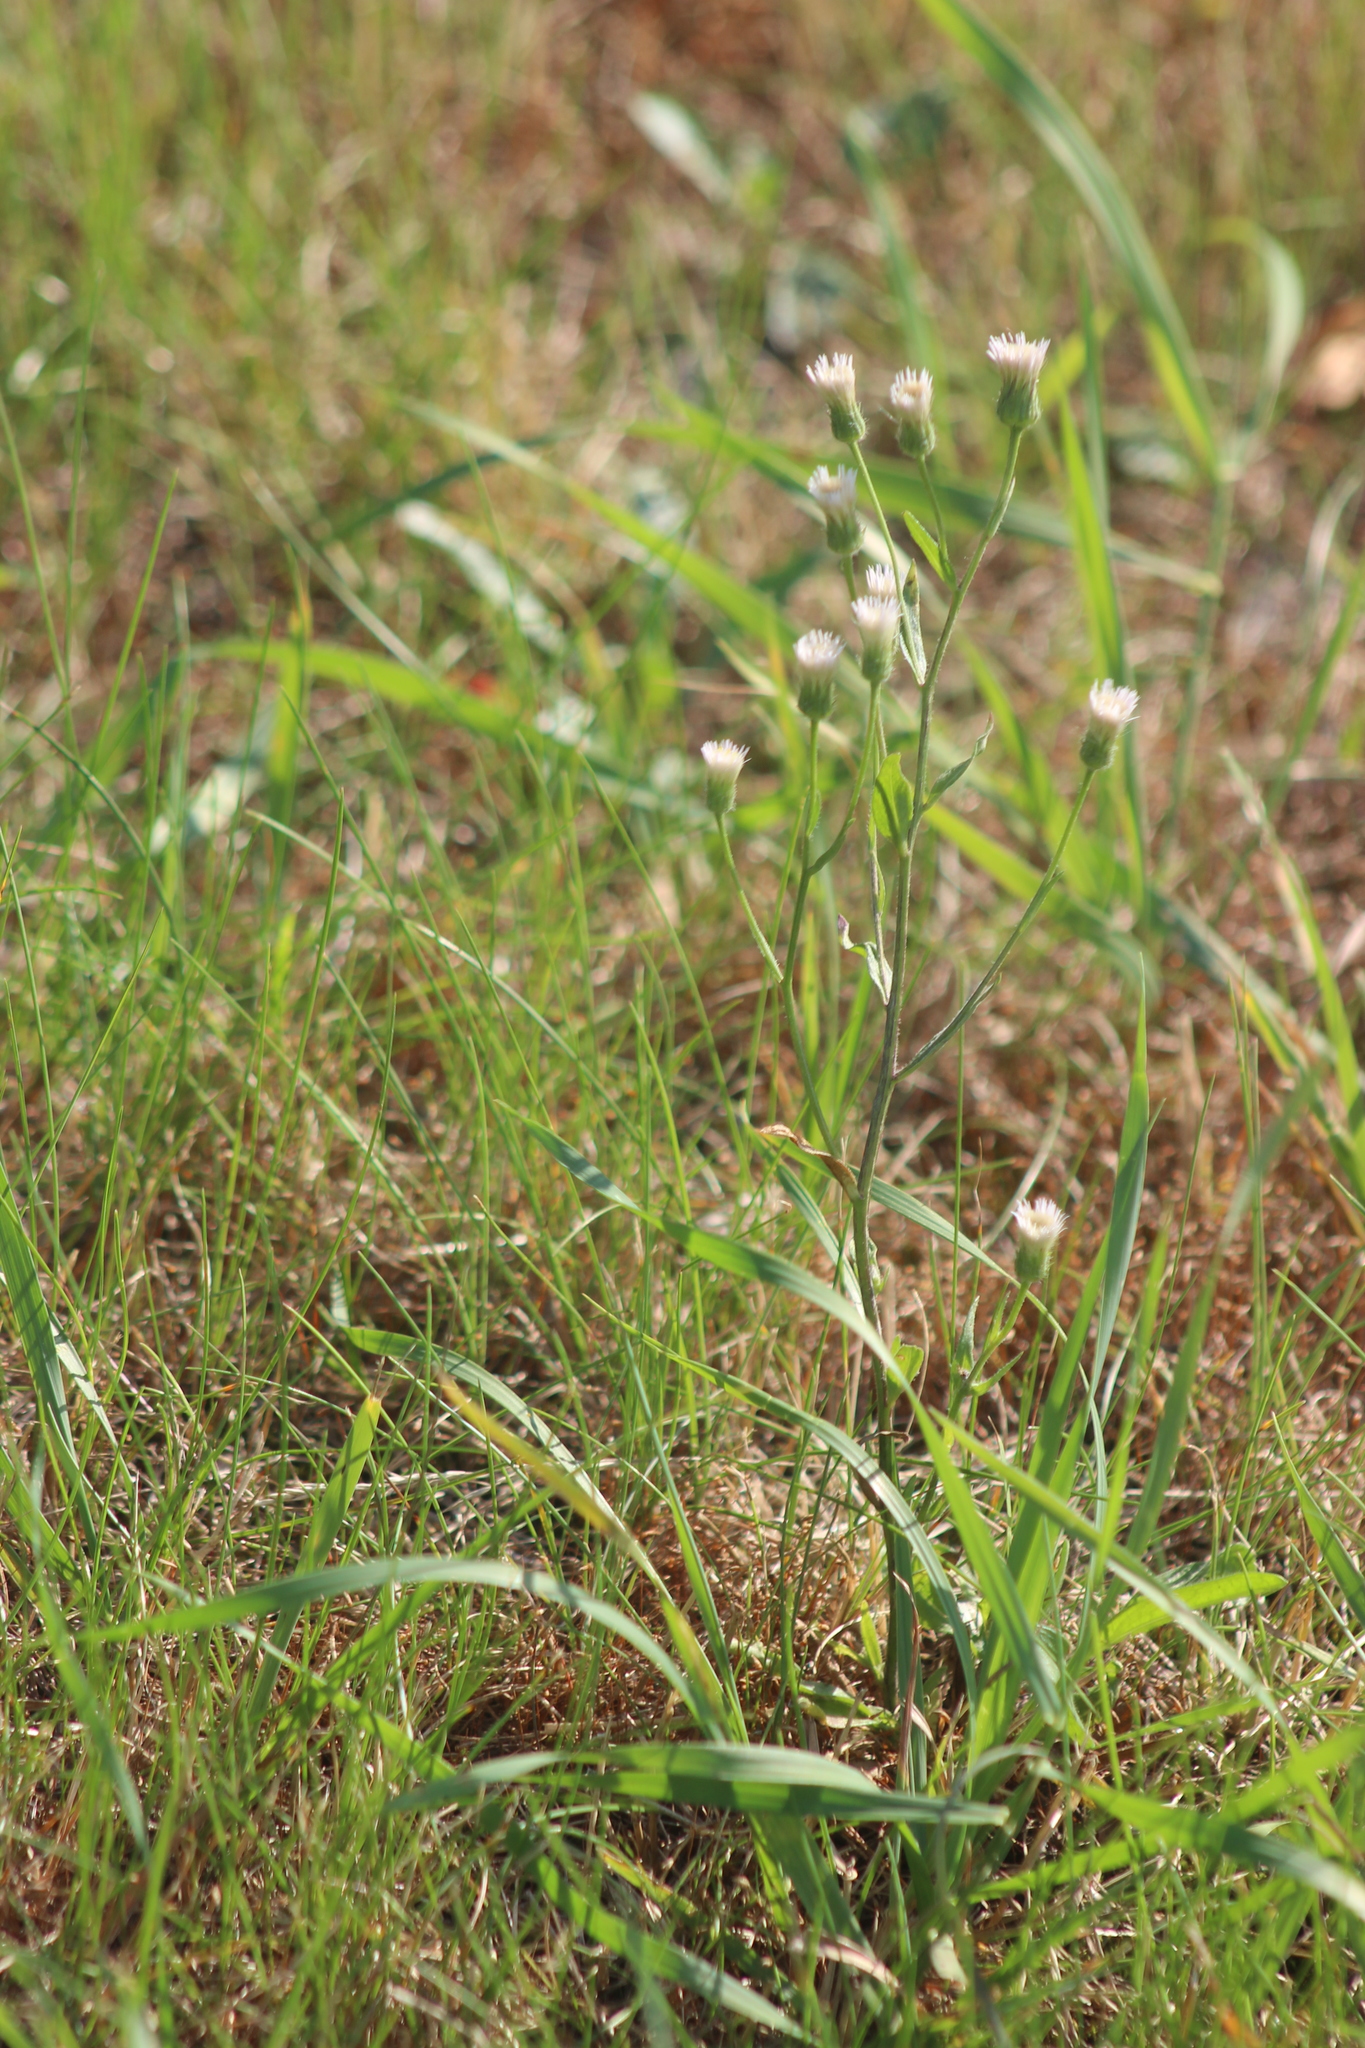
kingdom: Plantae
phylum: Tracheophyta
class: Magnoliopsida
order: Asterales
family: Asteraceae
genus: Erigeron
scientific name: Erigeron acris
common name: Blue fleabane
